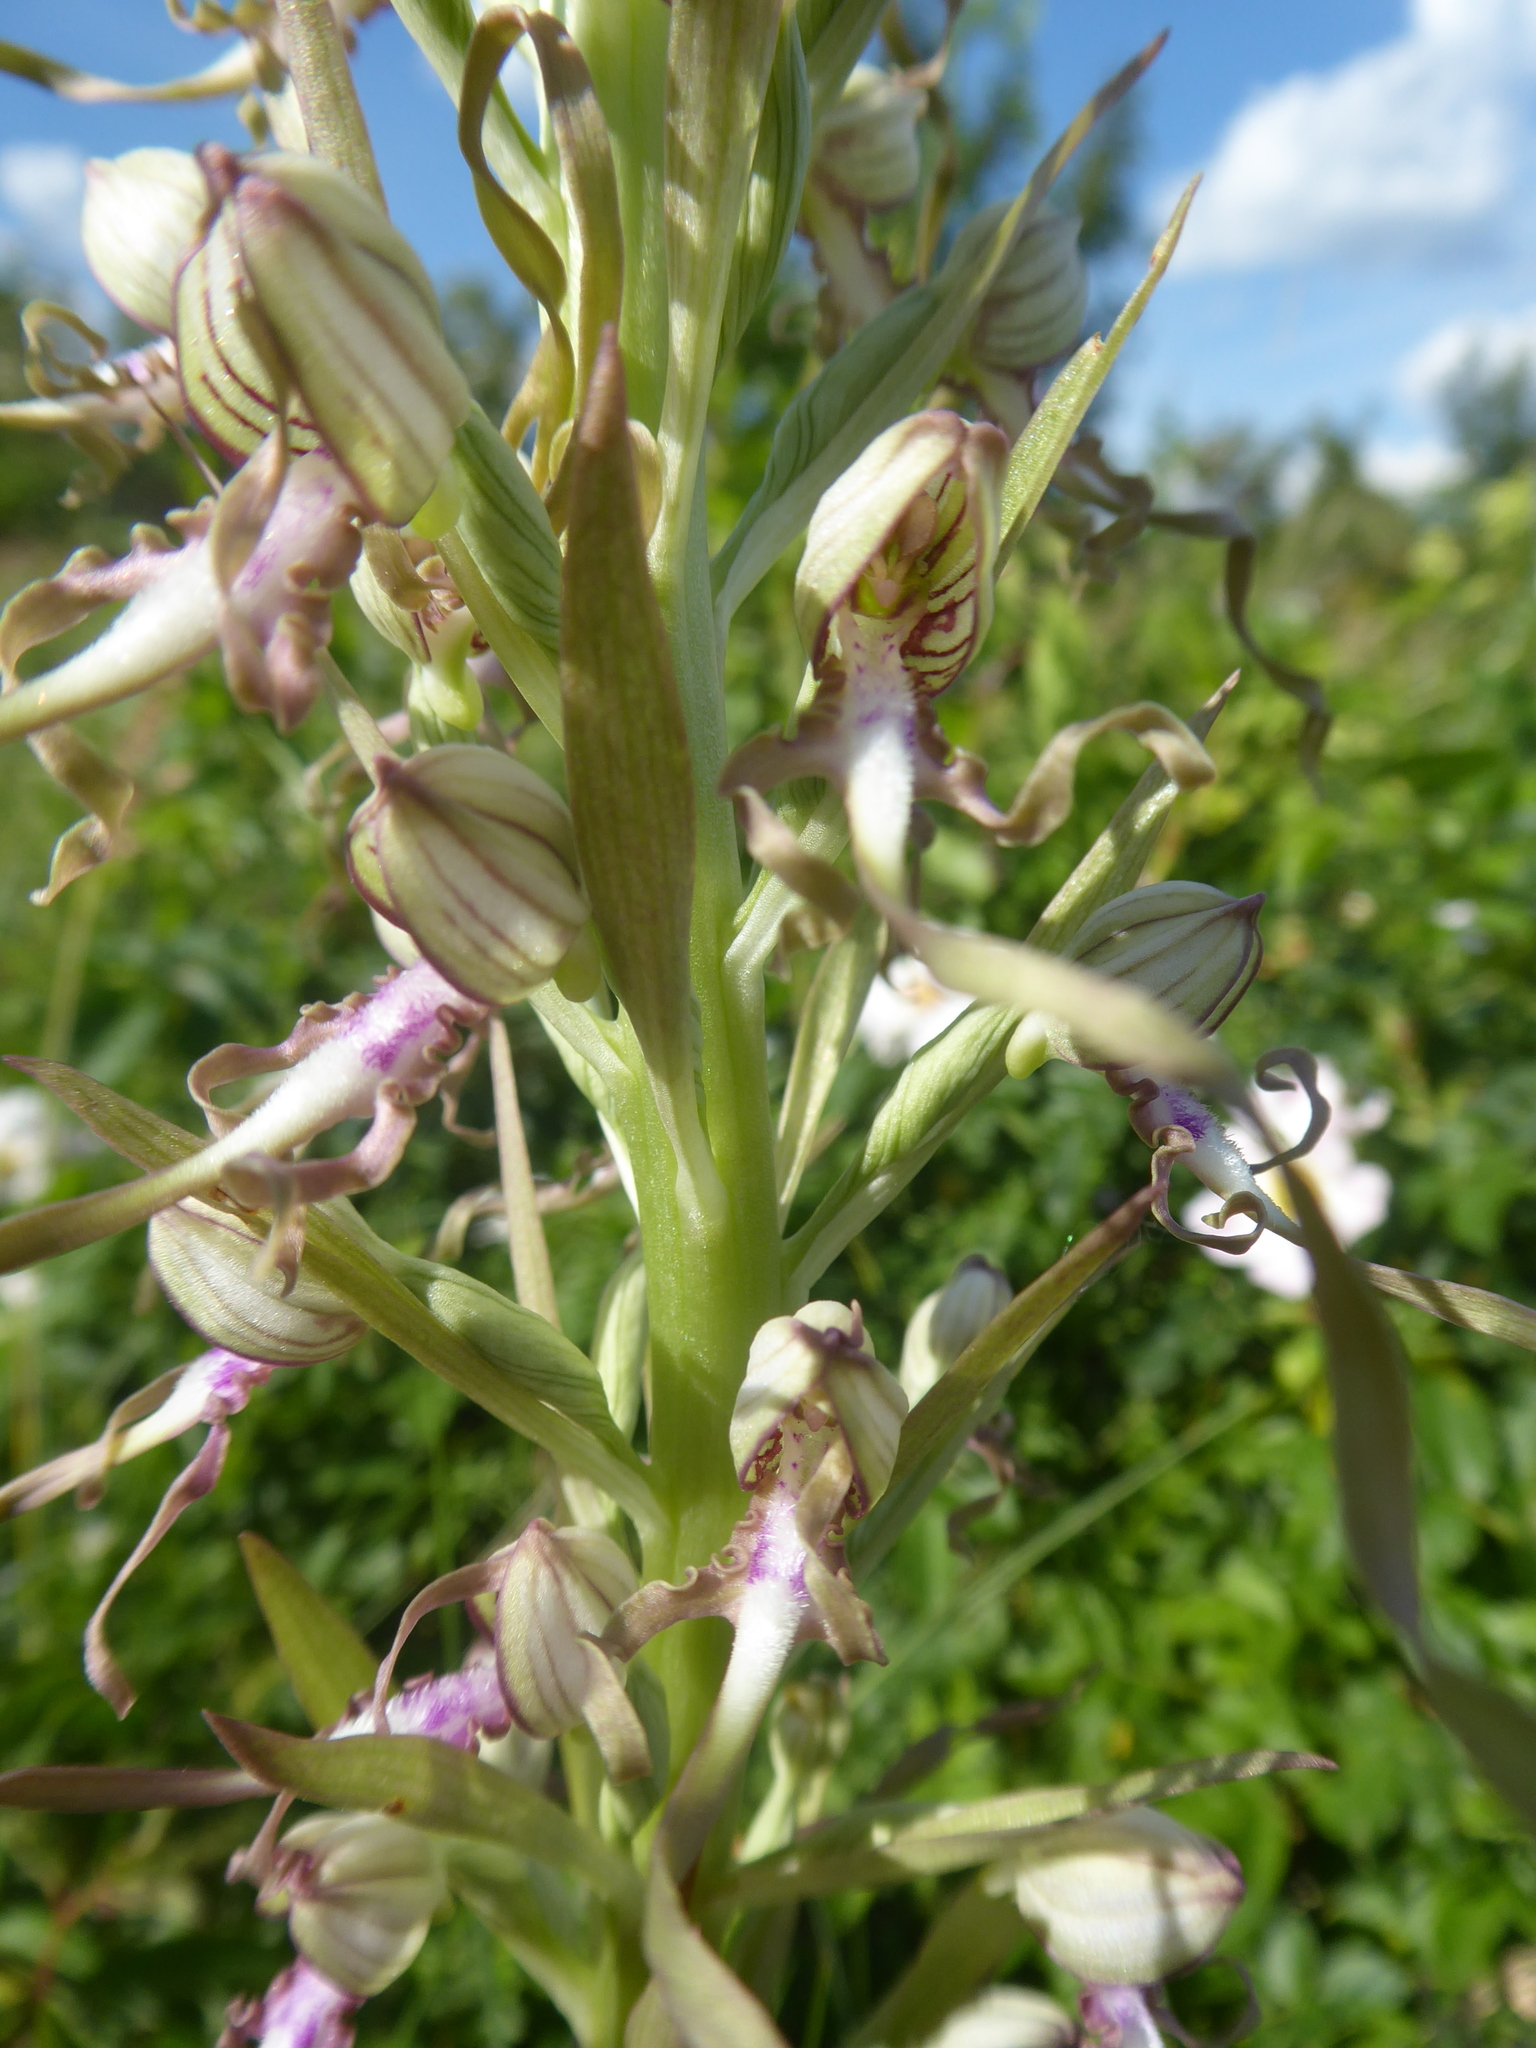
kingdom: Plantae
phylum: Tracheophyta
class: Liliopsida
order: Asparagales
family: Orchidaceae
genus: Himantoglossum
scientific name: Himantoglossum adriaticum
